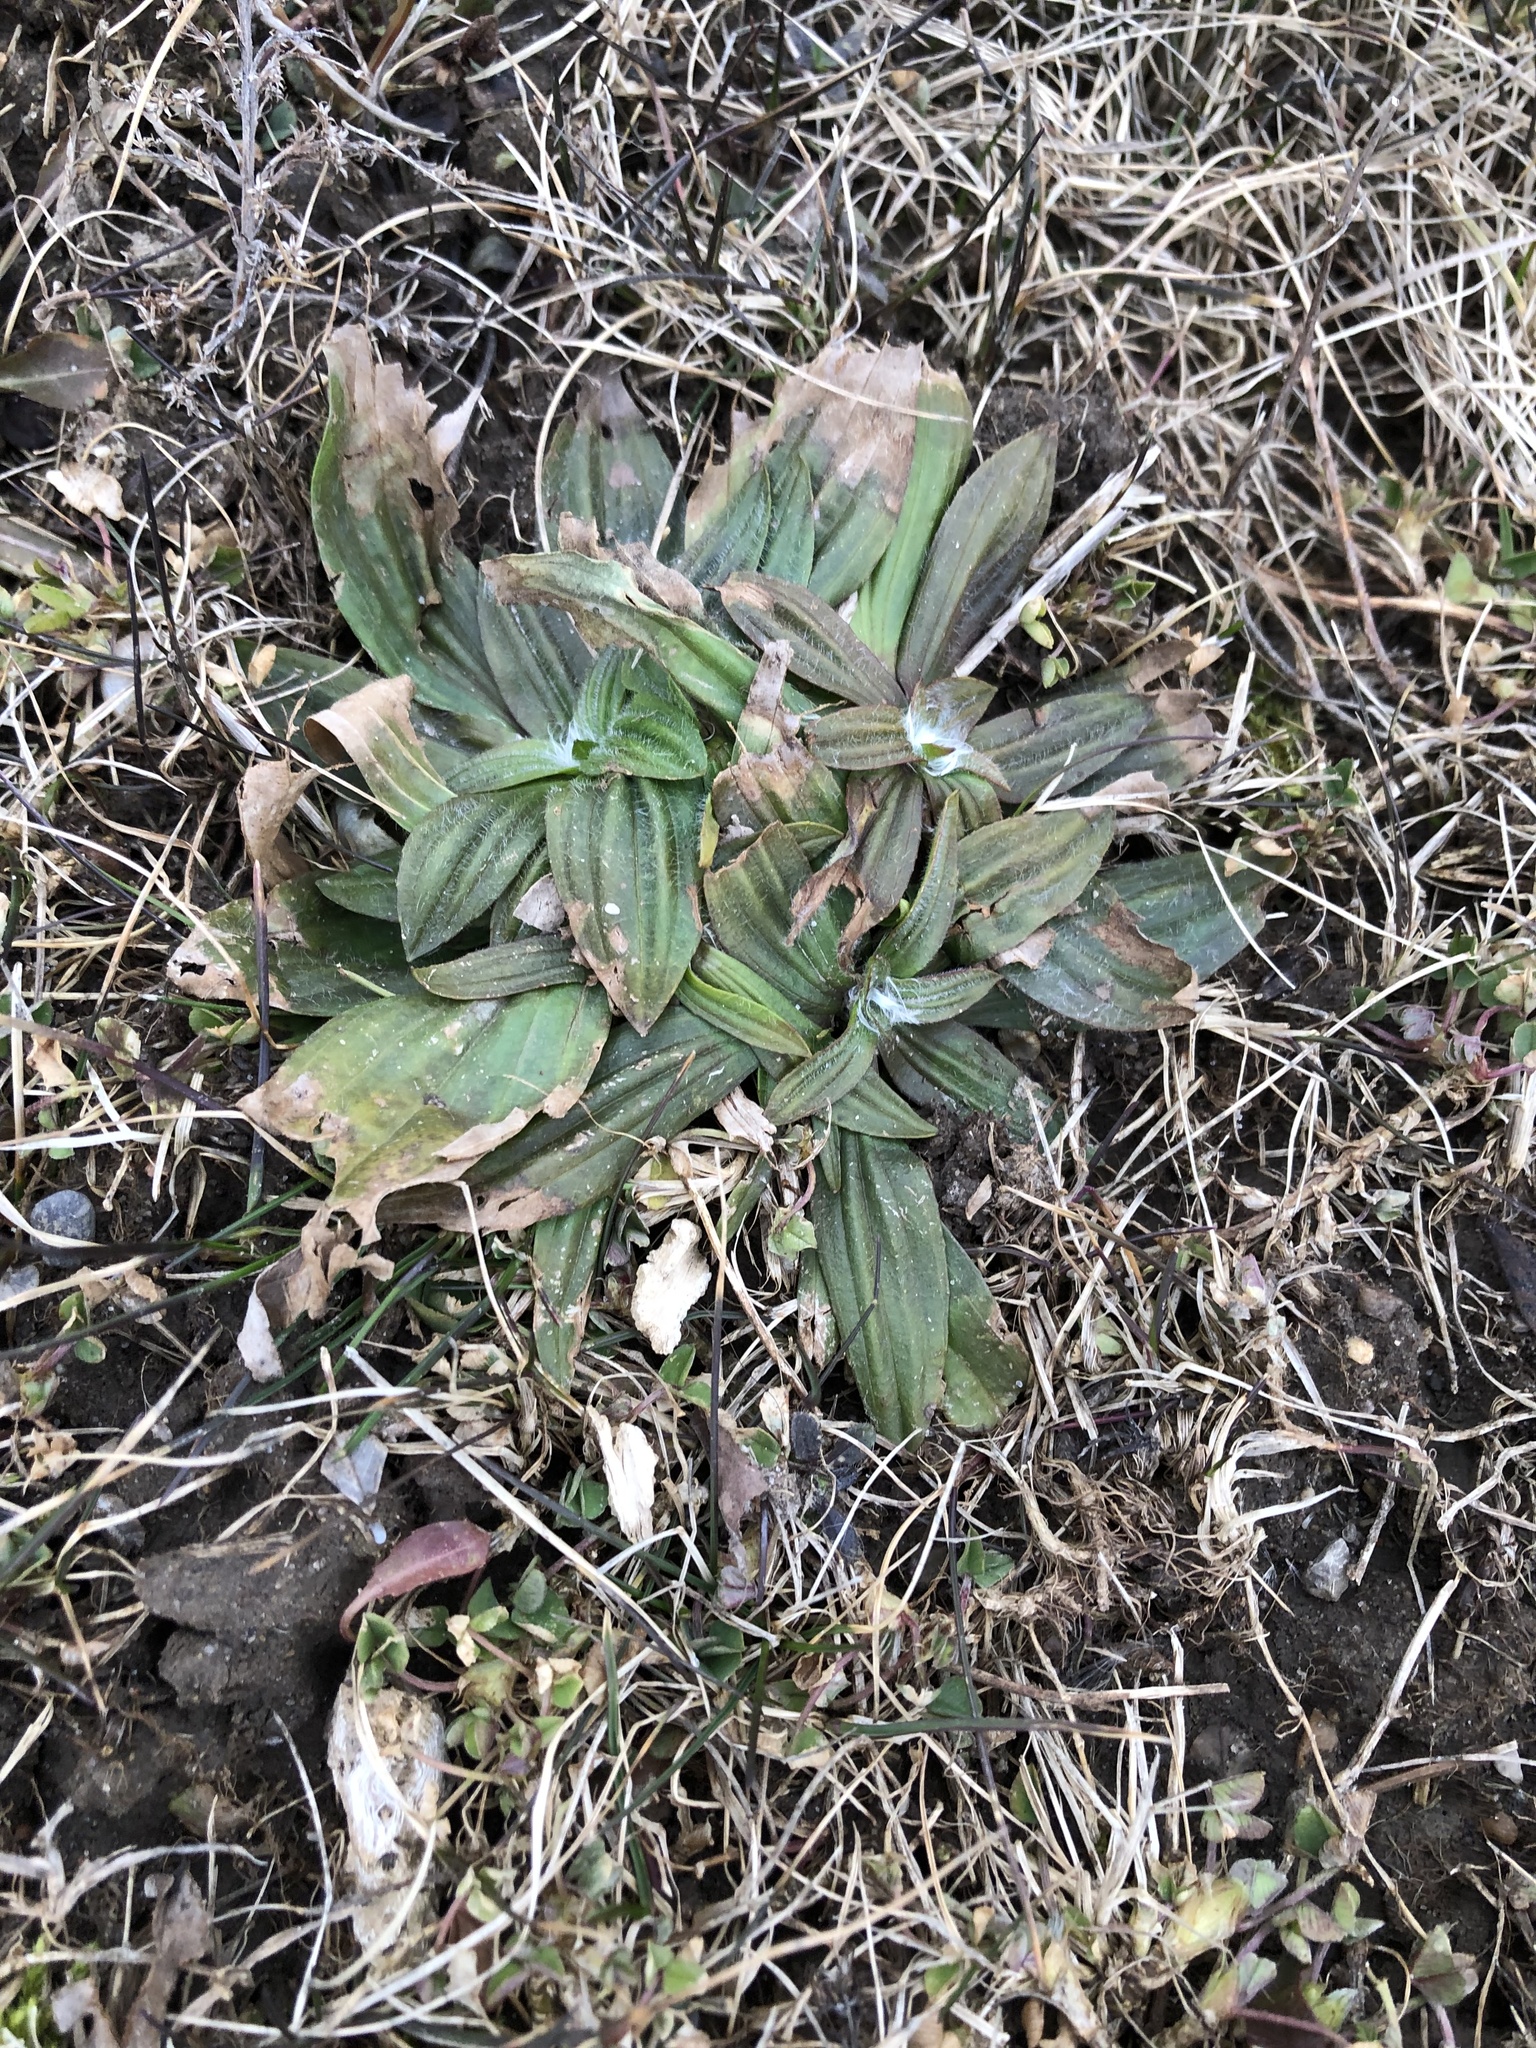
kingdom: Plantae
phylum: Tracheophyta
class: Magnoliopsida
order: Lamiales
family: Plantaginaceae
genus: Plantago
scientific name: Plantago lanceolata
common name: Ribwort plantain
